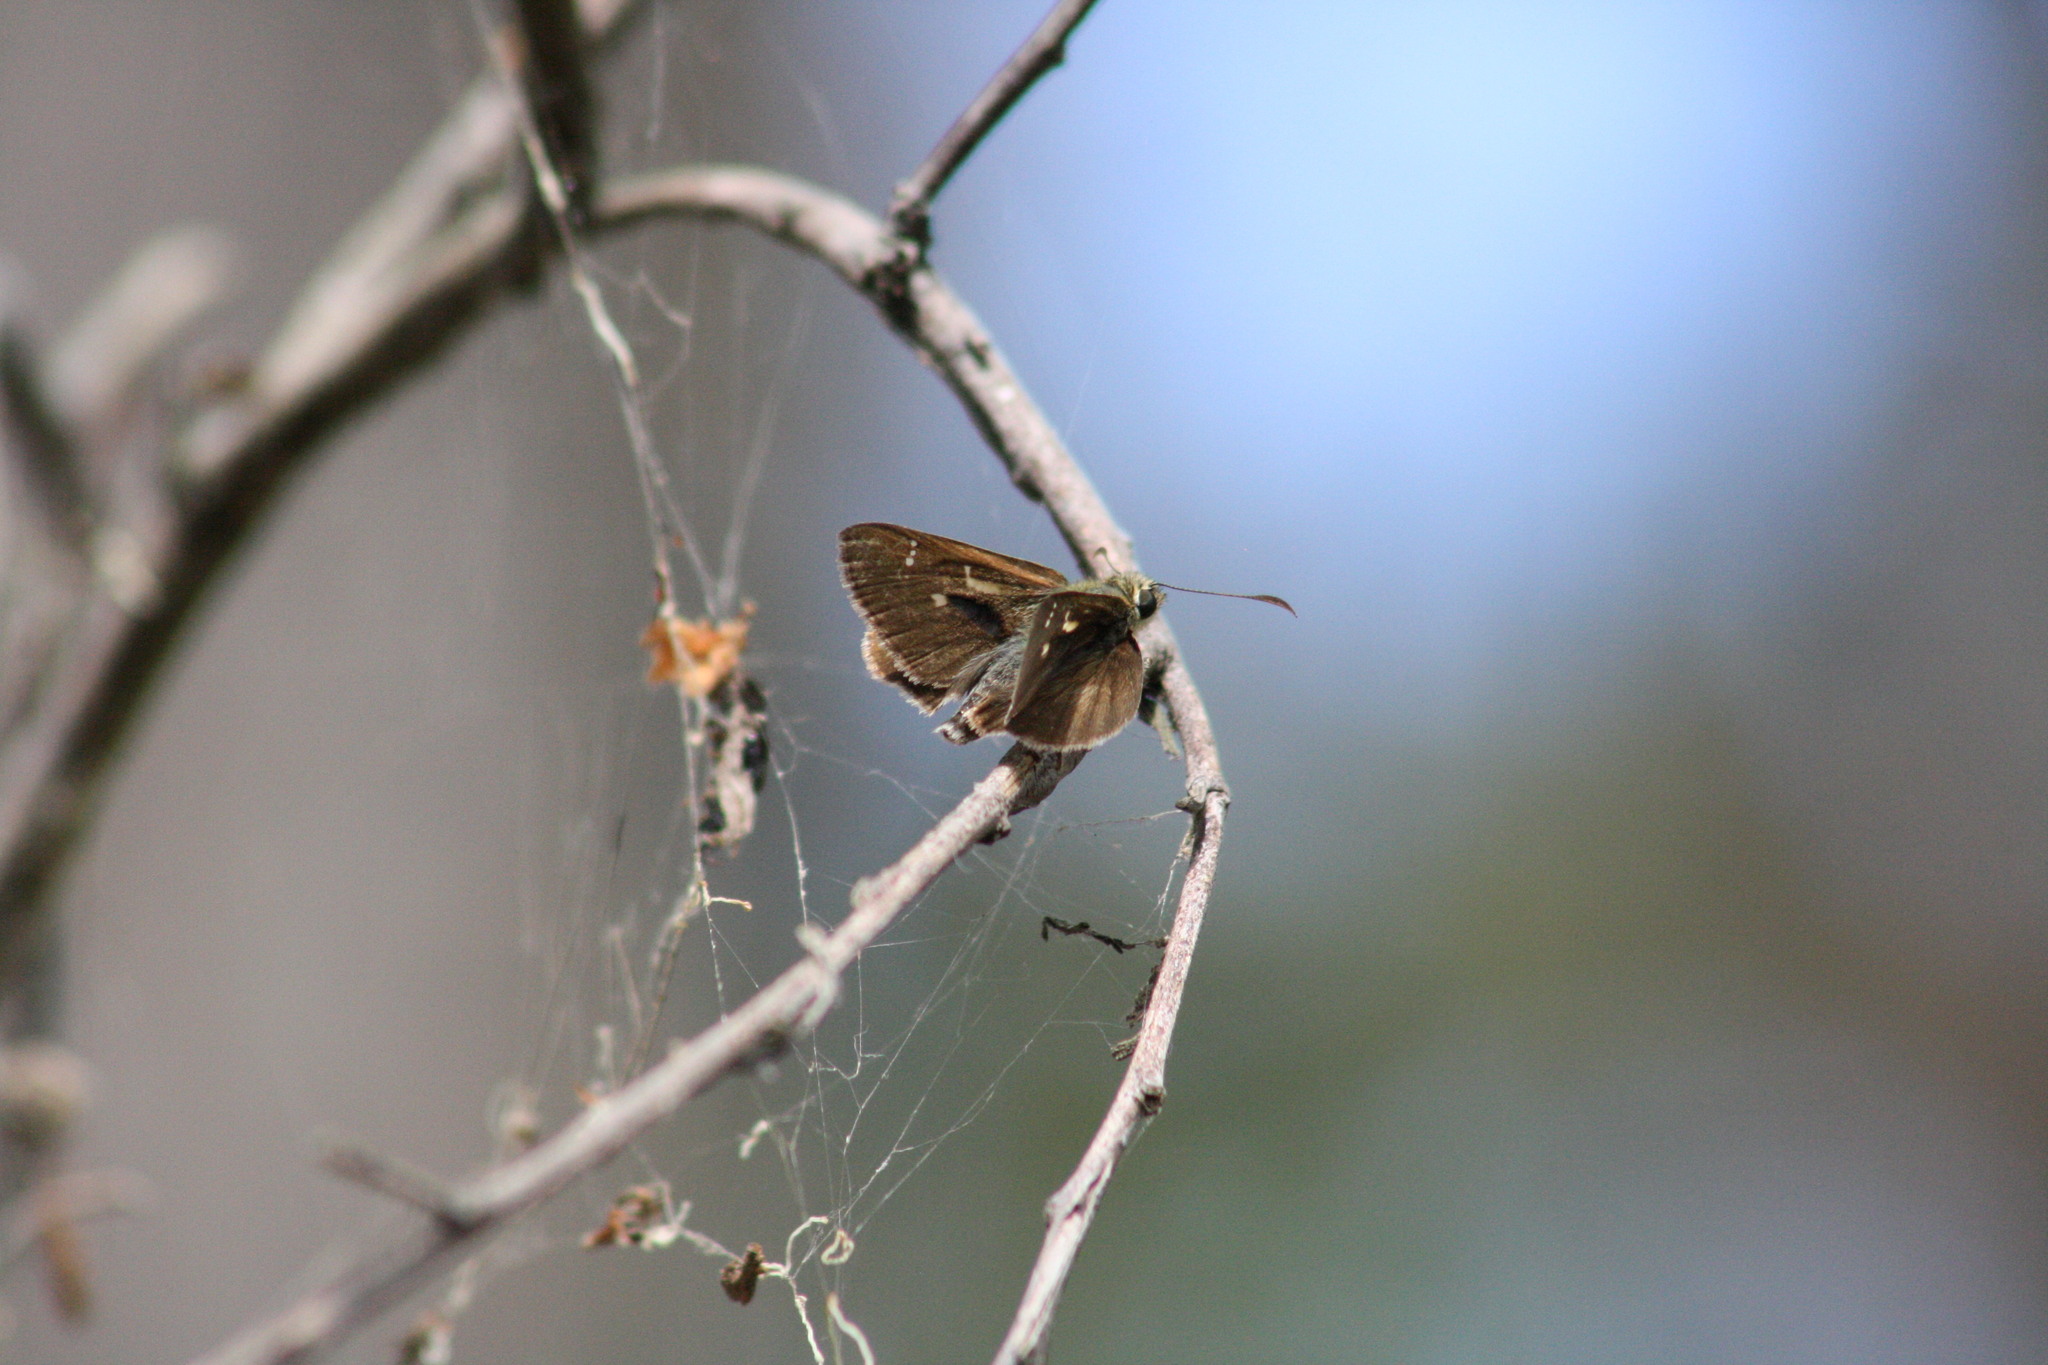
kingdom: Animalia
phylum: Arthropoda
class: Insecta
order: Lepidoptera
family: Hesperiidae
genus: Toxidia
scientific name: Toxidia
